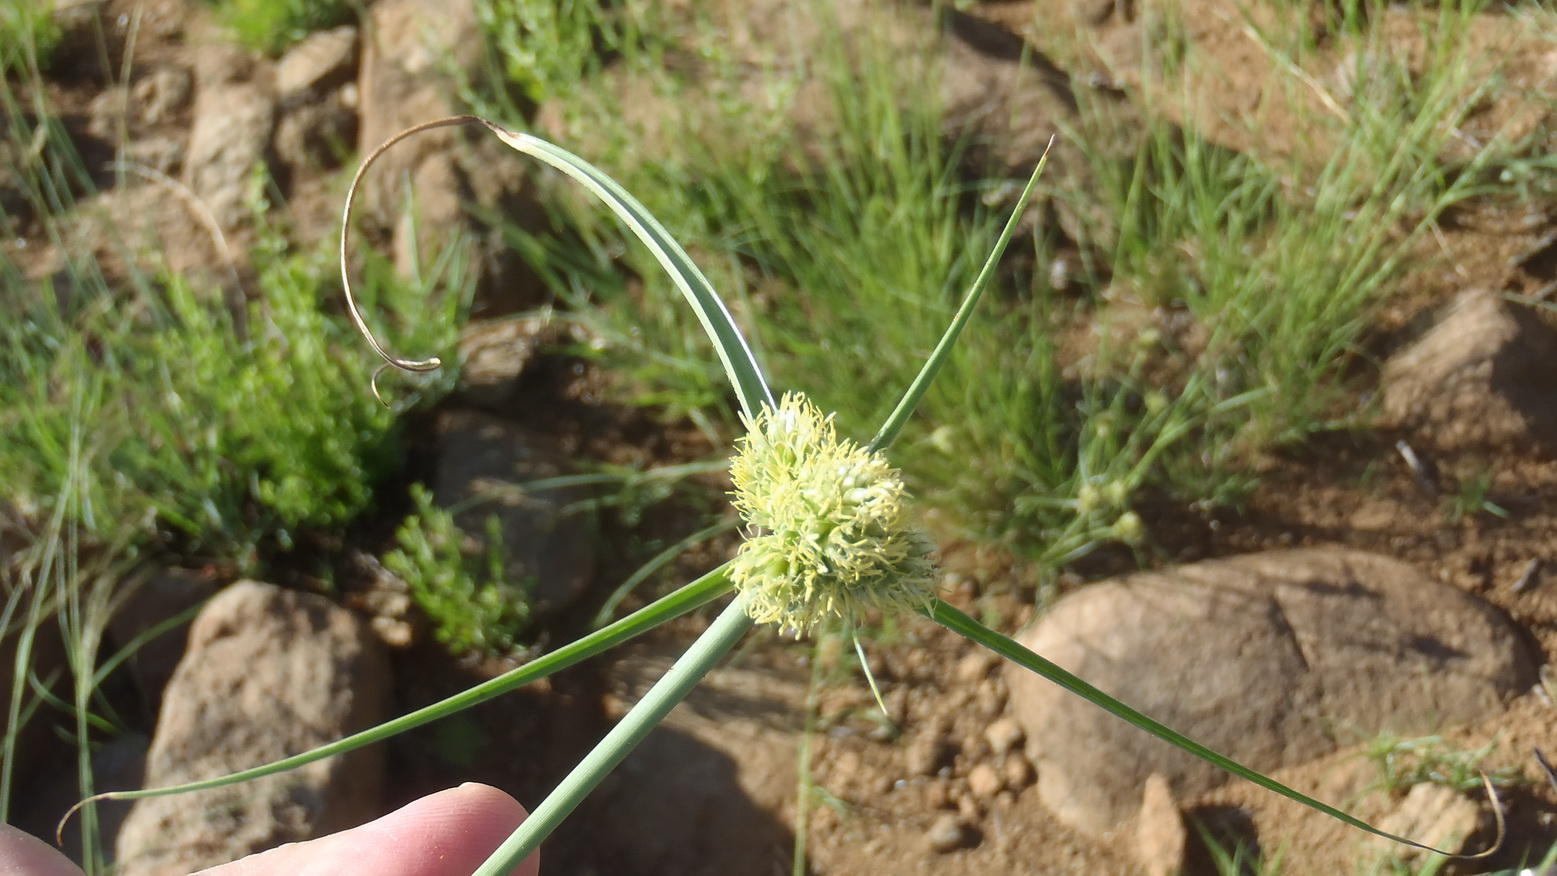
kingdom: Plantae
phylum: Tracheophyta
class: Liliopsida
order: Poales
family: Cyperaceae
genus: Cyperus
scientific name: Cyperus capensis
